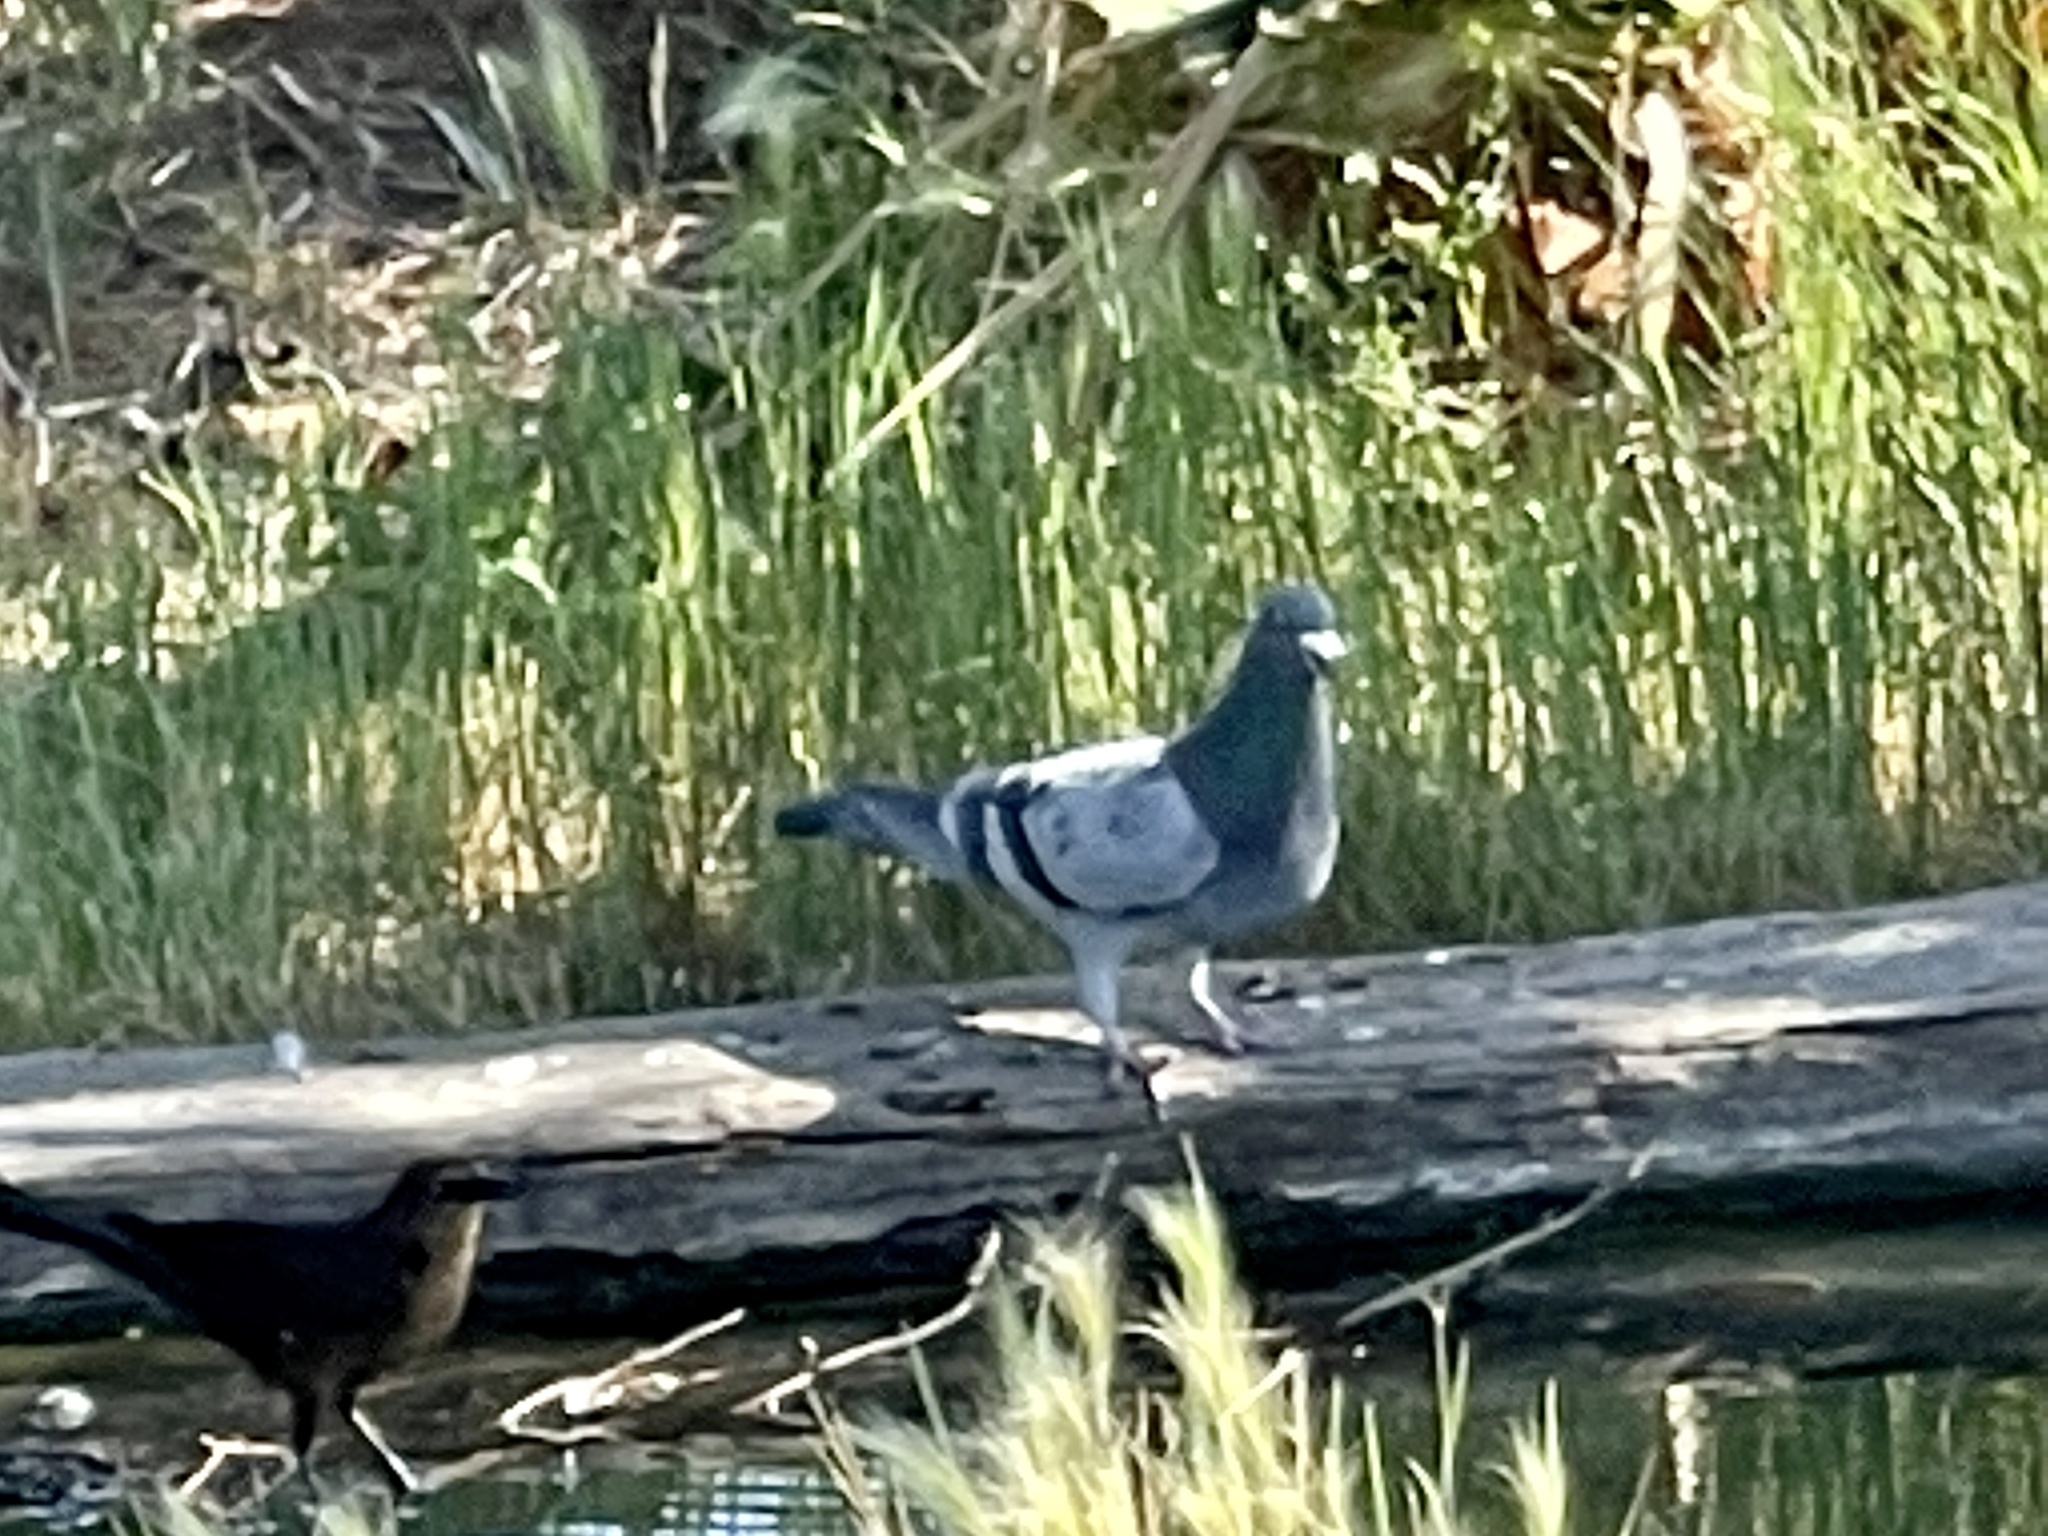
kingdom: Animalia
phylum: Chordata
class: Aves
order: Columbiformes
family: Columbidae
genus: Columba
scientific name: Columba livia
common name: Rock pigeon
